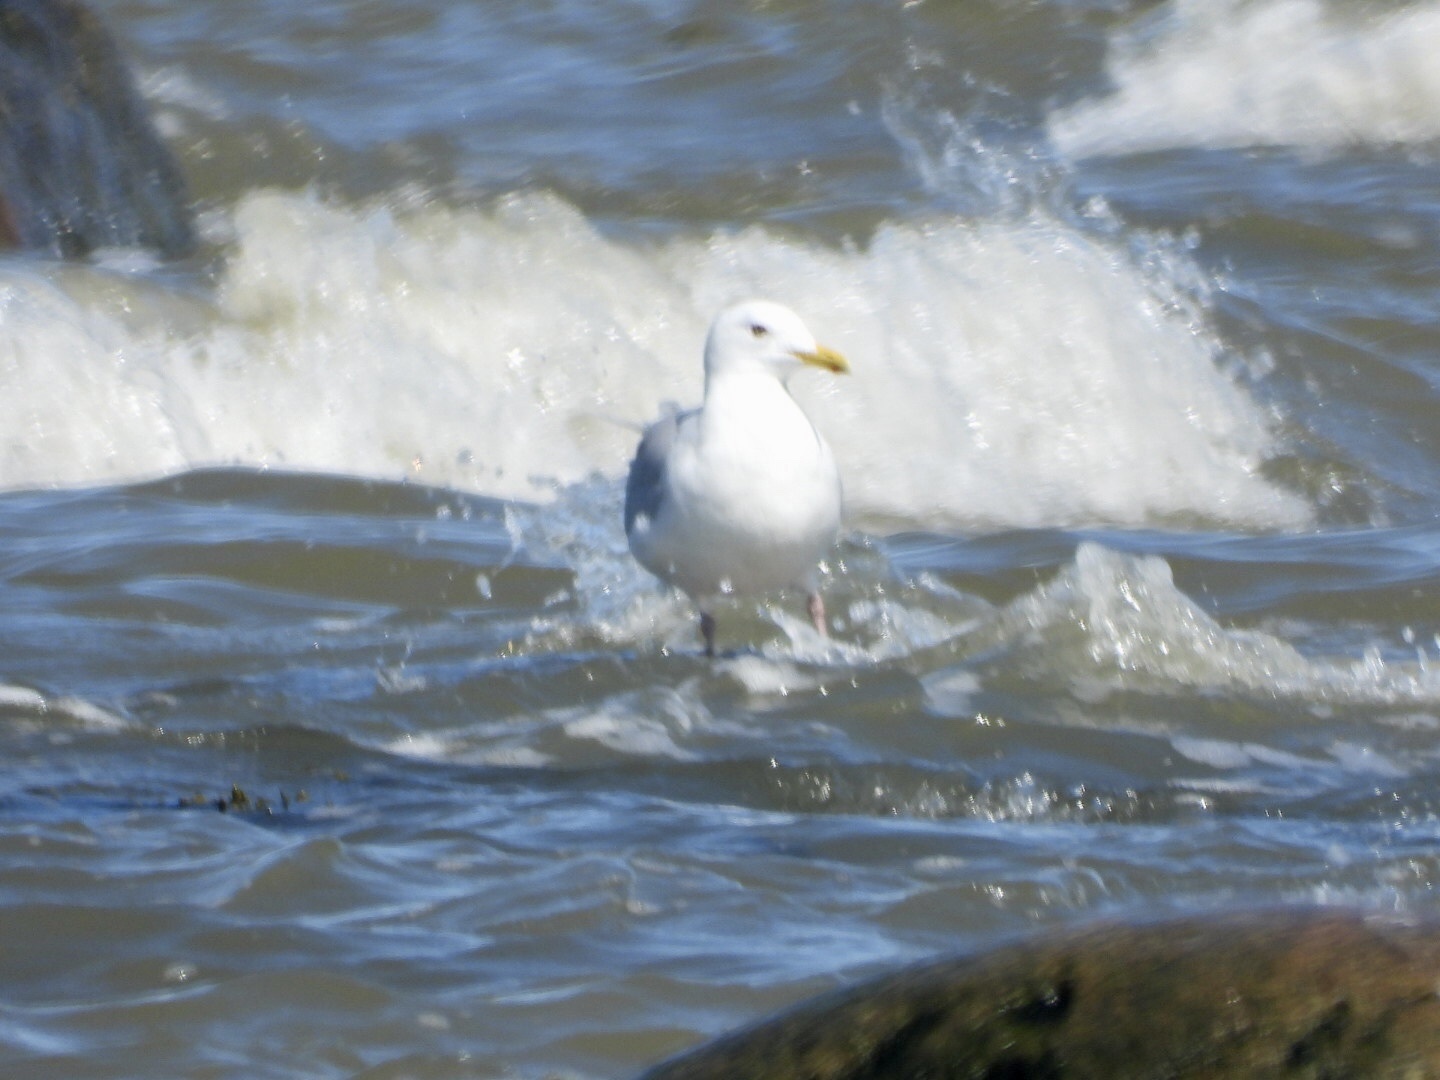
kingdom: Animalia
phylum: Chordata
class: Aves
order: Charadriiformes
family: Laridae
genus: Larus
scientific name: Larus hyperboreus
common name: Glaucous gull
